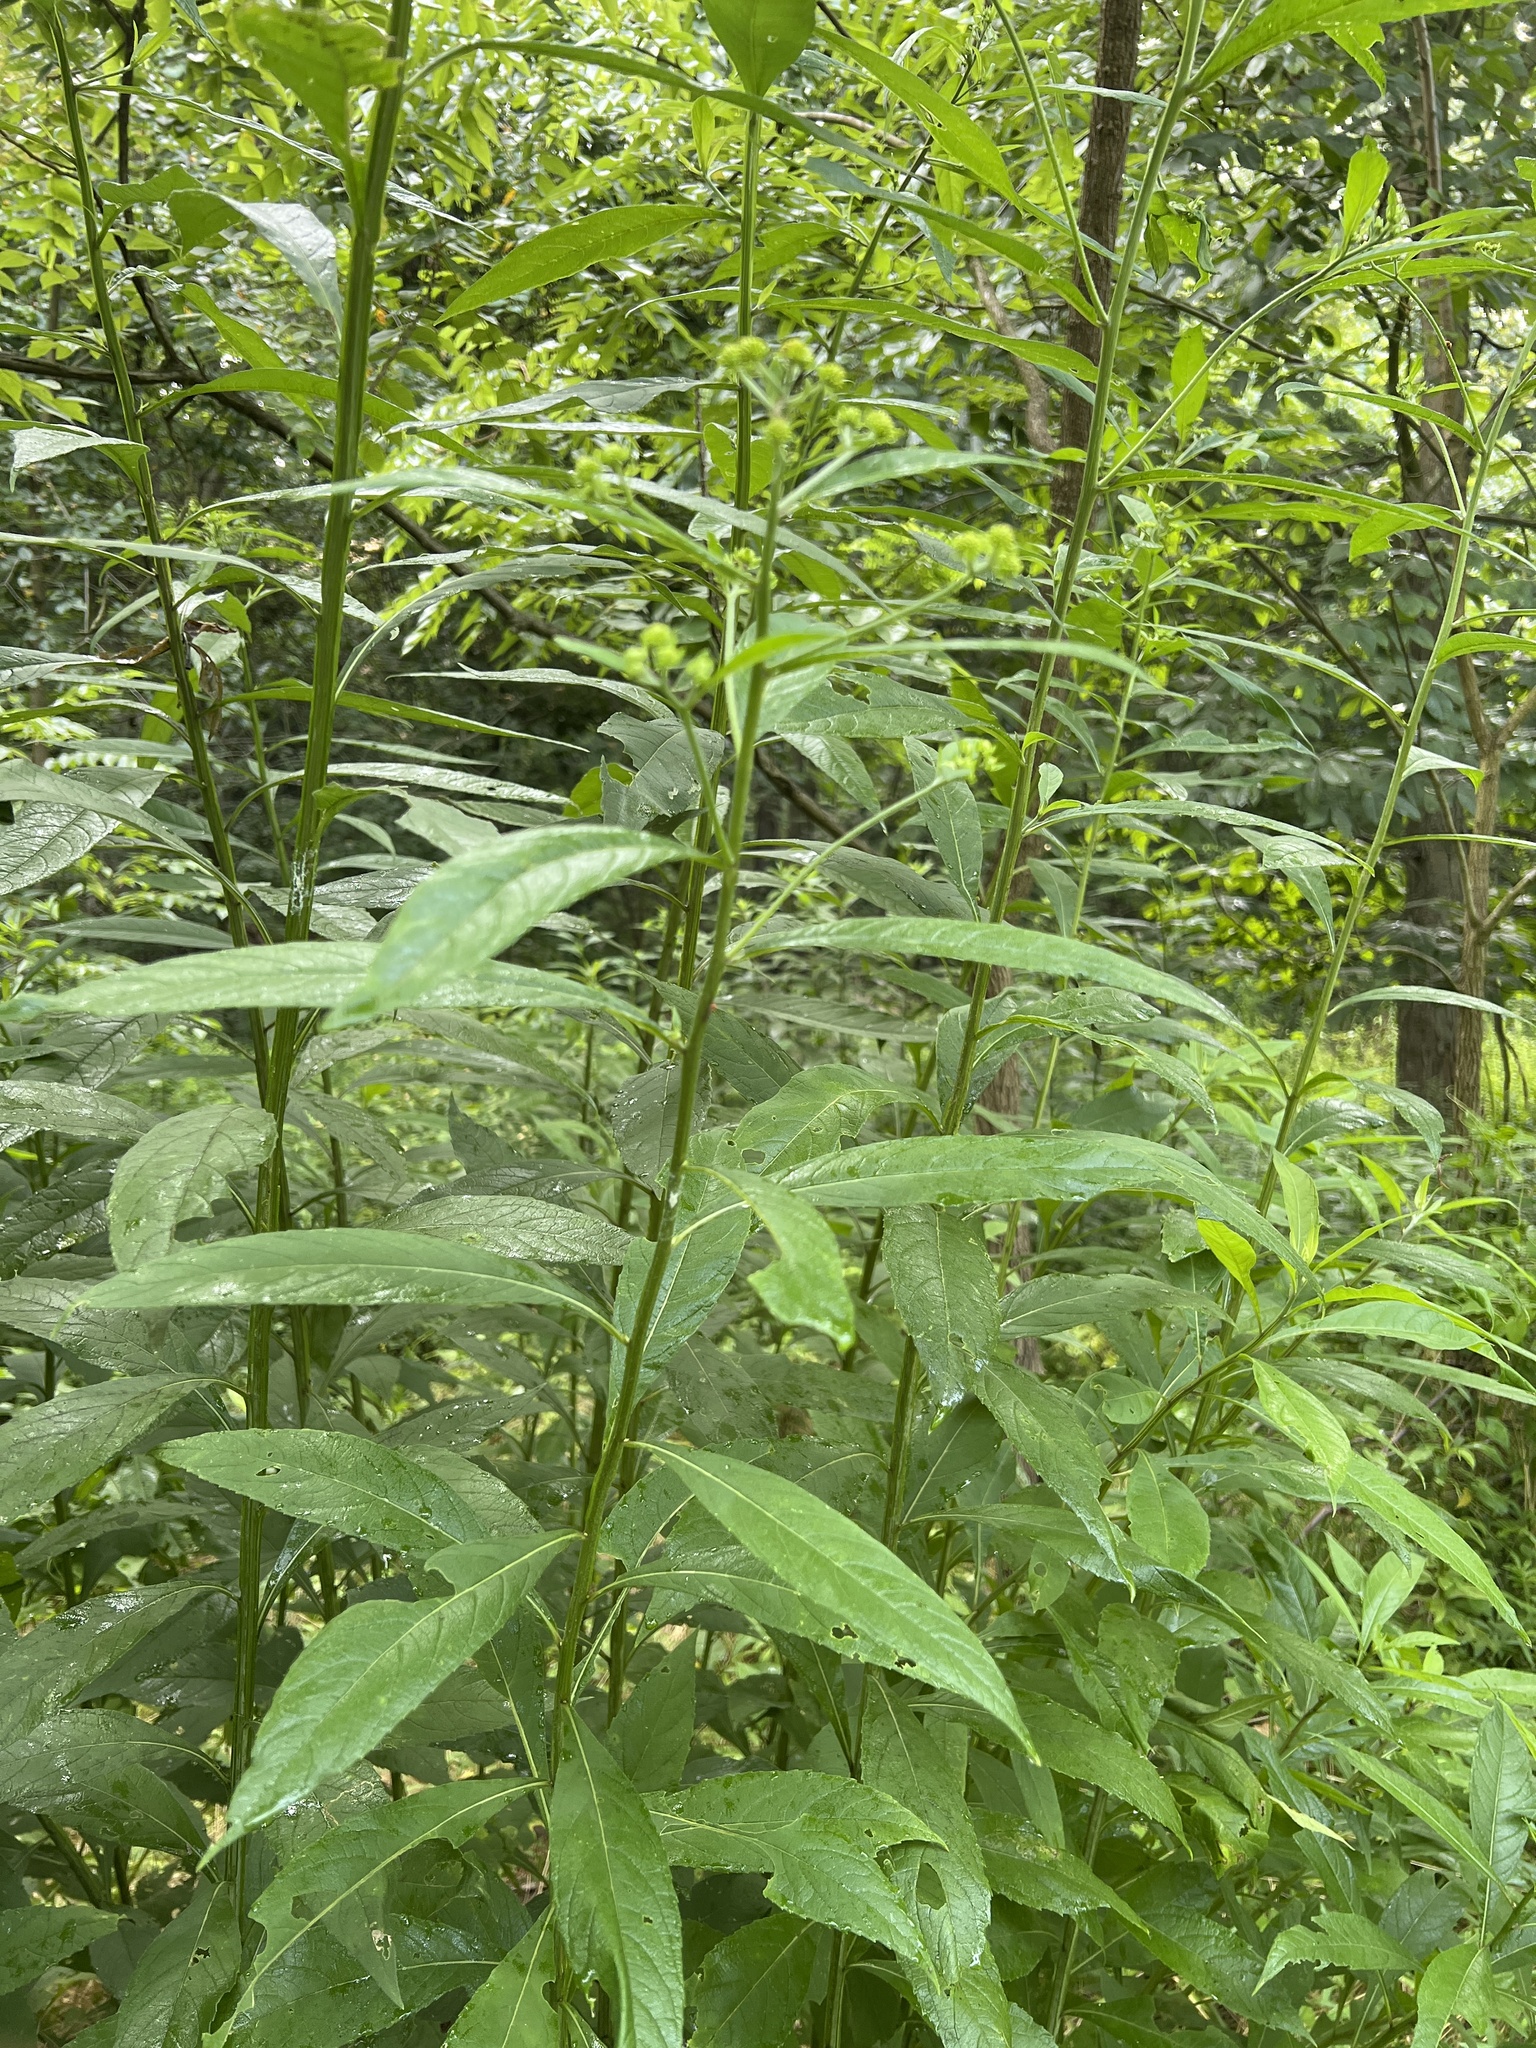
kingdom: Plantae
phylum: Tracheophyta
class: Magnoliopsida
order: Asterales
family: Asteraceae
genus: Verbesina
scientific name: Verbesina alternifolia
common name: Wingstem
